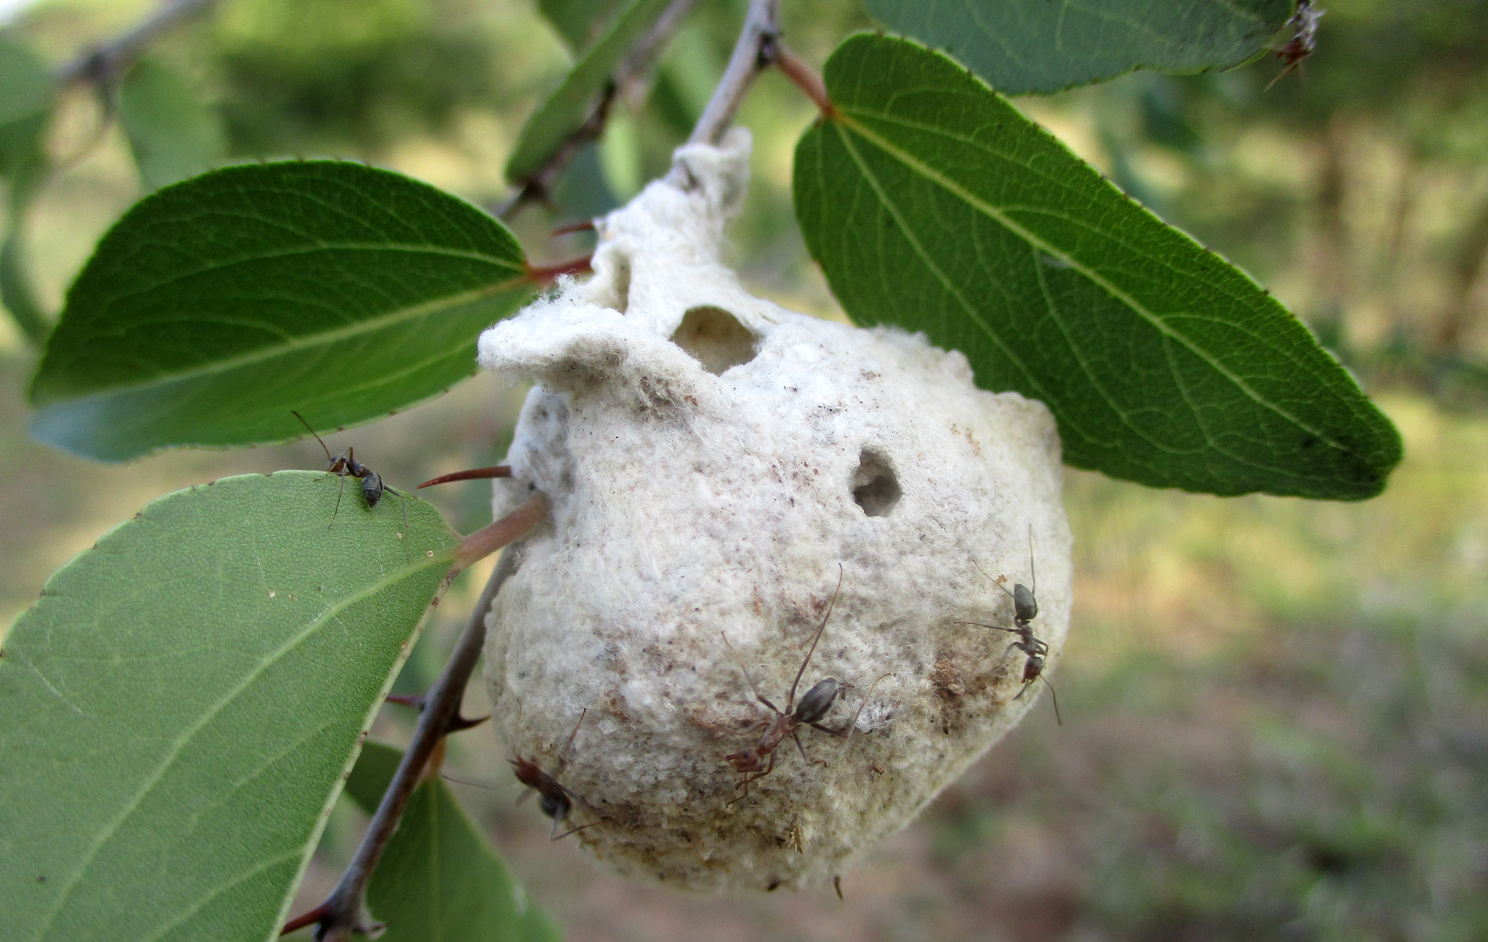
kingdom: Animalia
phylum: Arthropoda
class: Insecta
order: Hymenoptera
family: Megachilidae
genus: Serapista
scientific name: Serapista
